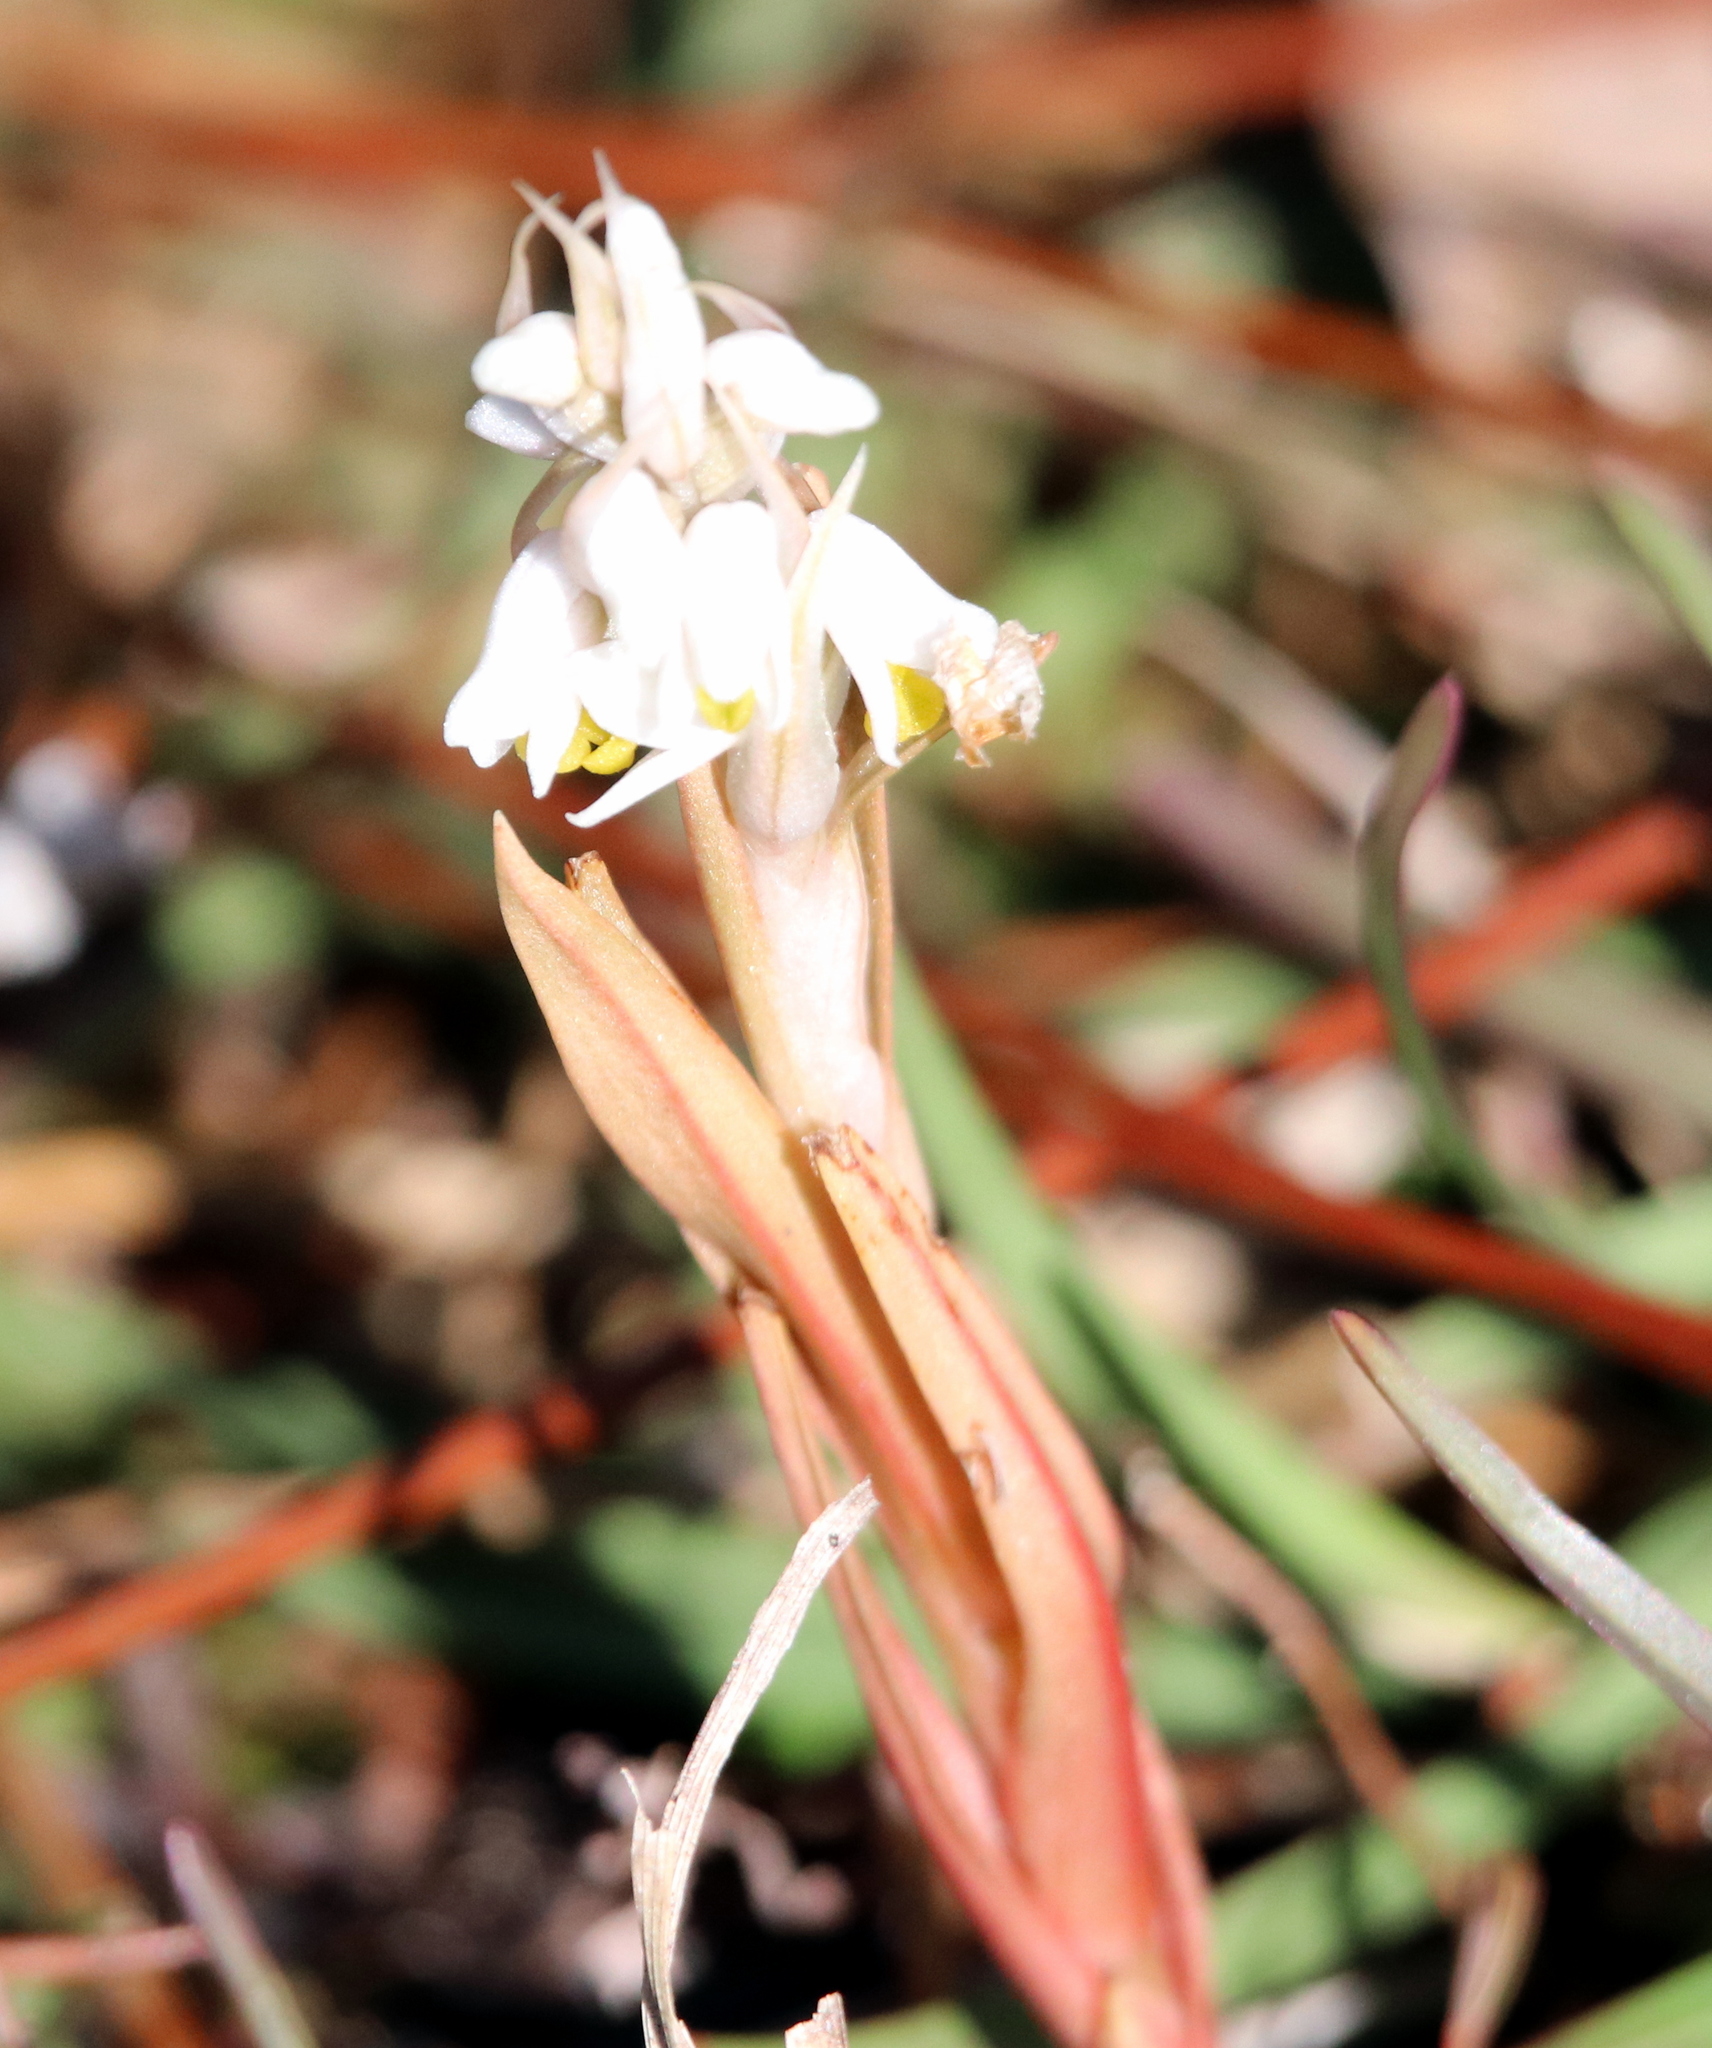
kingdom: Plantae
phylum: Tracheophyta
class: Liliopsida
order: Asparagales
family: Orchidaceae
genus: Zeuxine
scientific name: Zeuxine strateumatica
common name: Soldier's orchid
